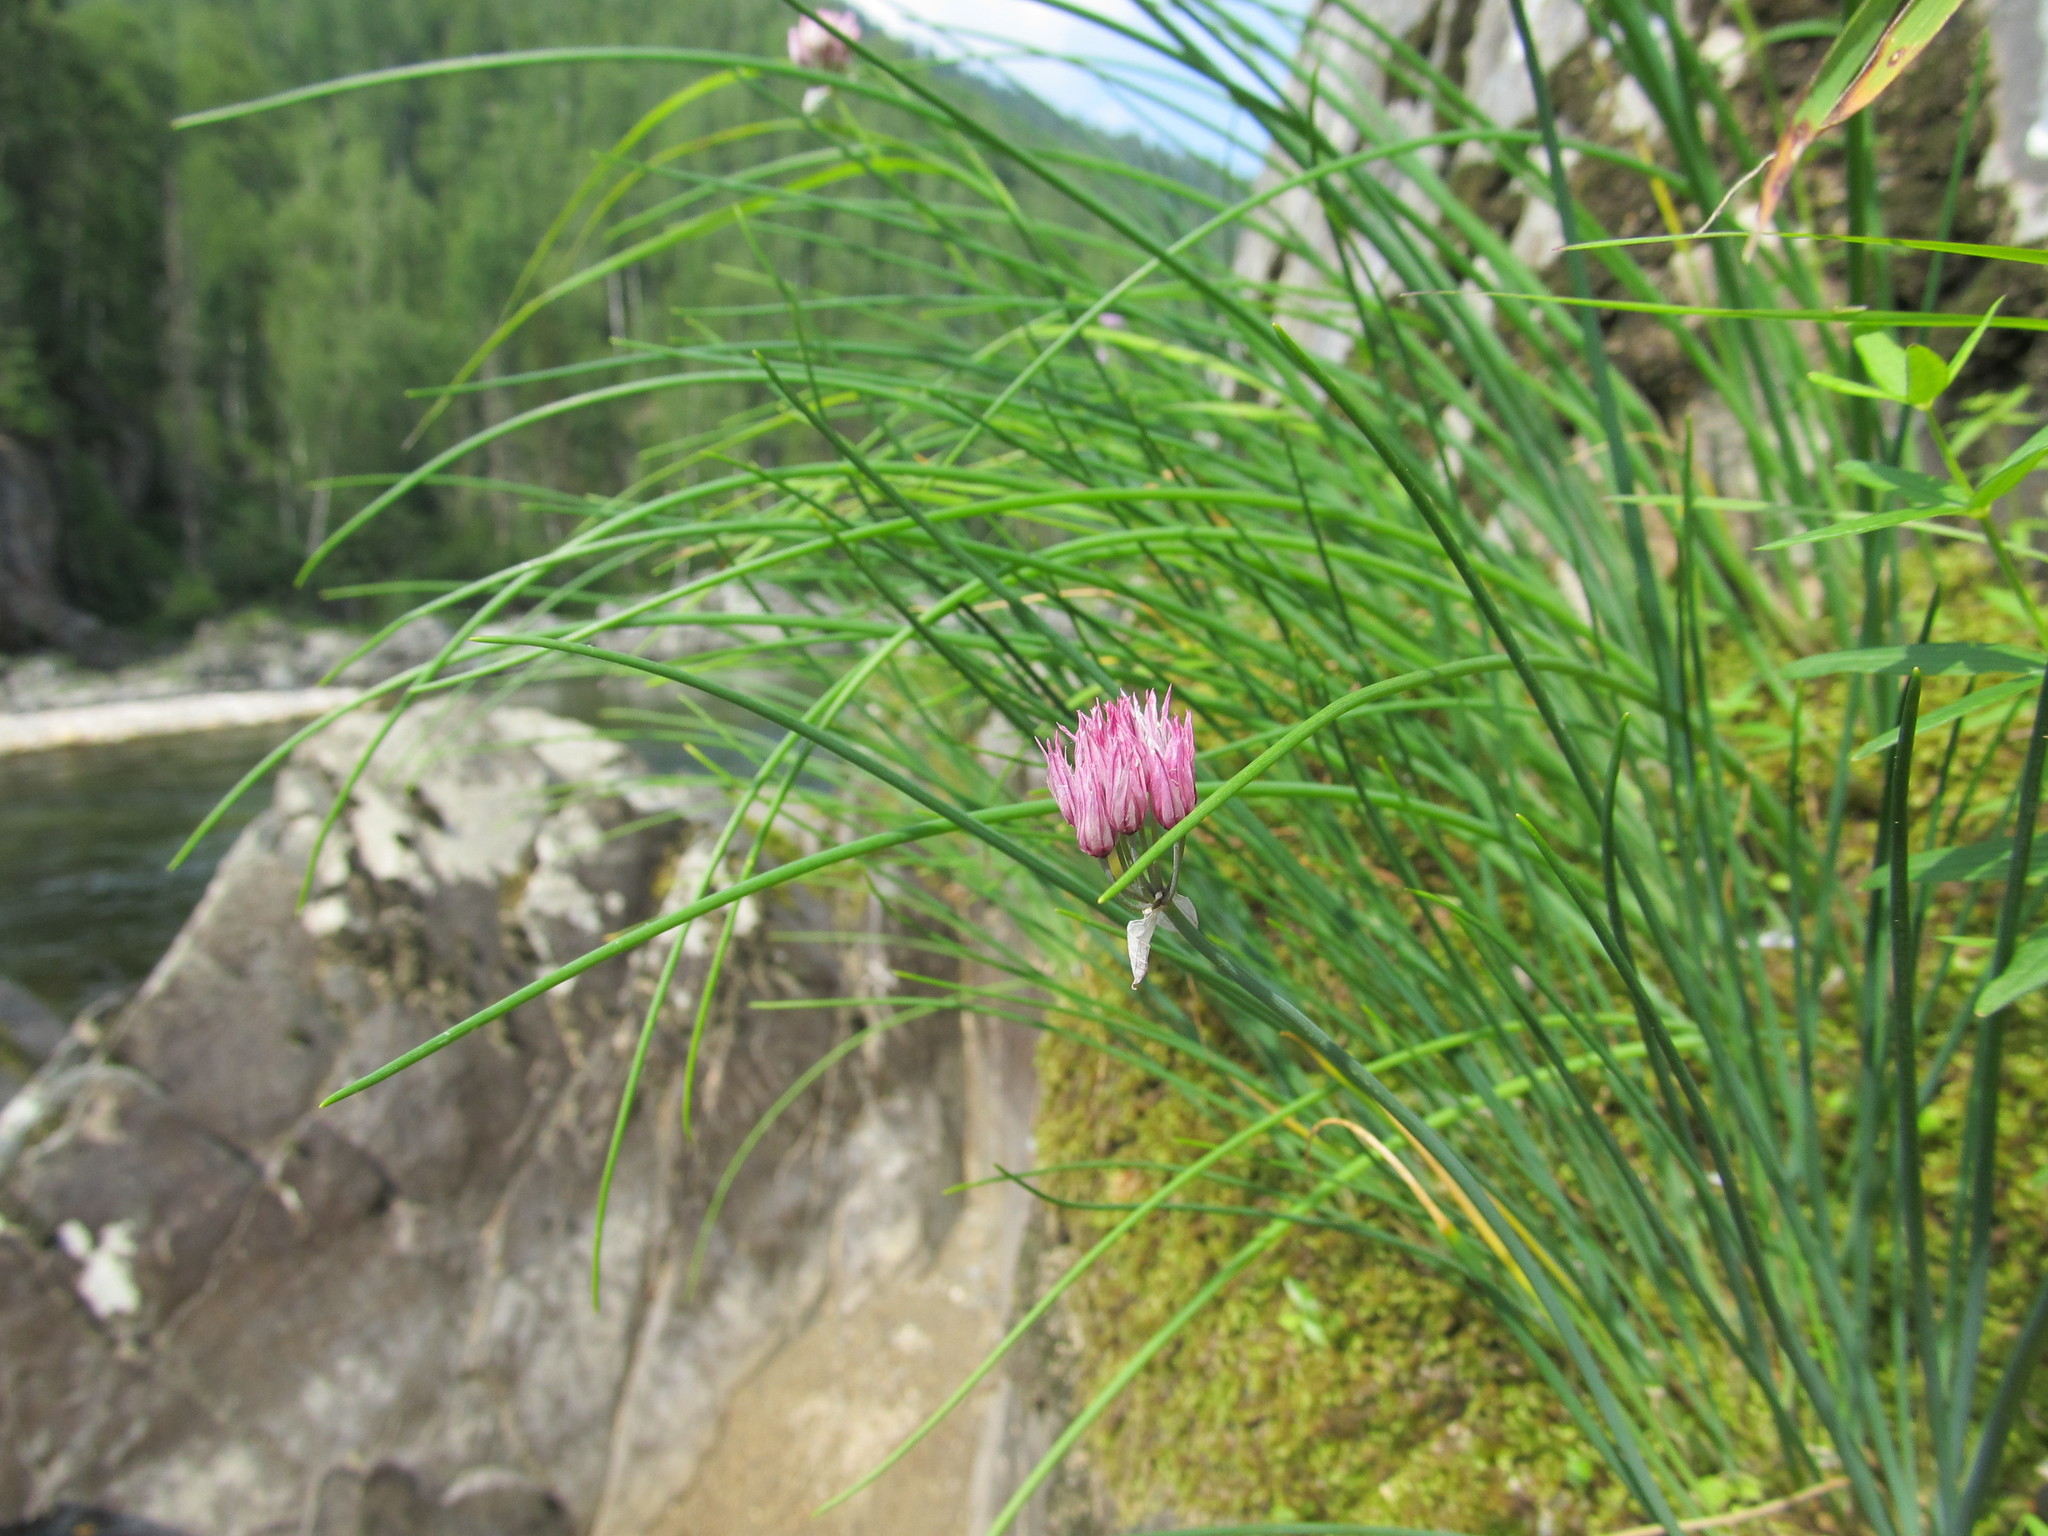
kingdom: Plantae
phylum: Tracheophyta
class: Liliopsida
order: Asparagales
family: Amaryllidaceae
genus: Allium
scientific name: Allium schoenoprasum
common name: Chives
